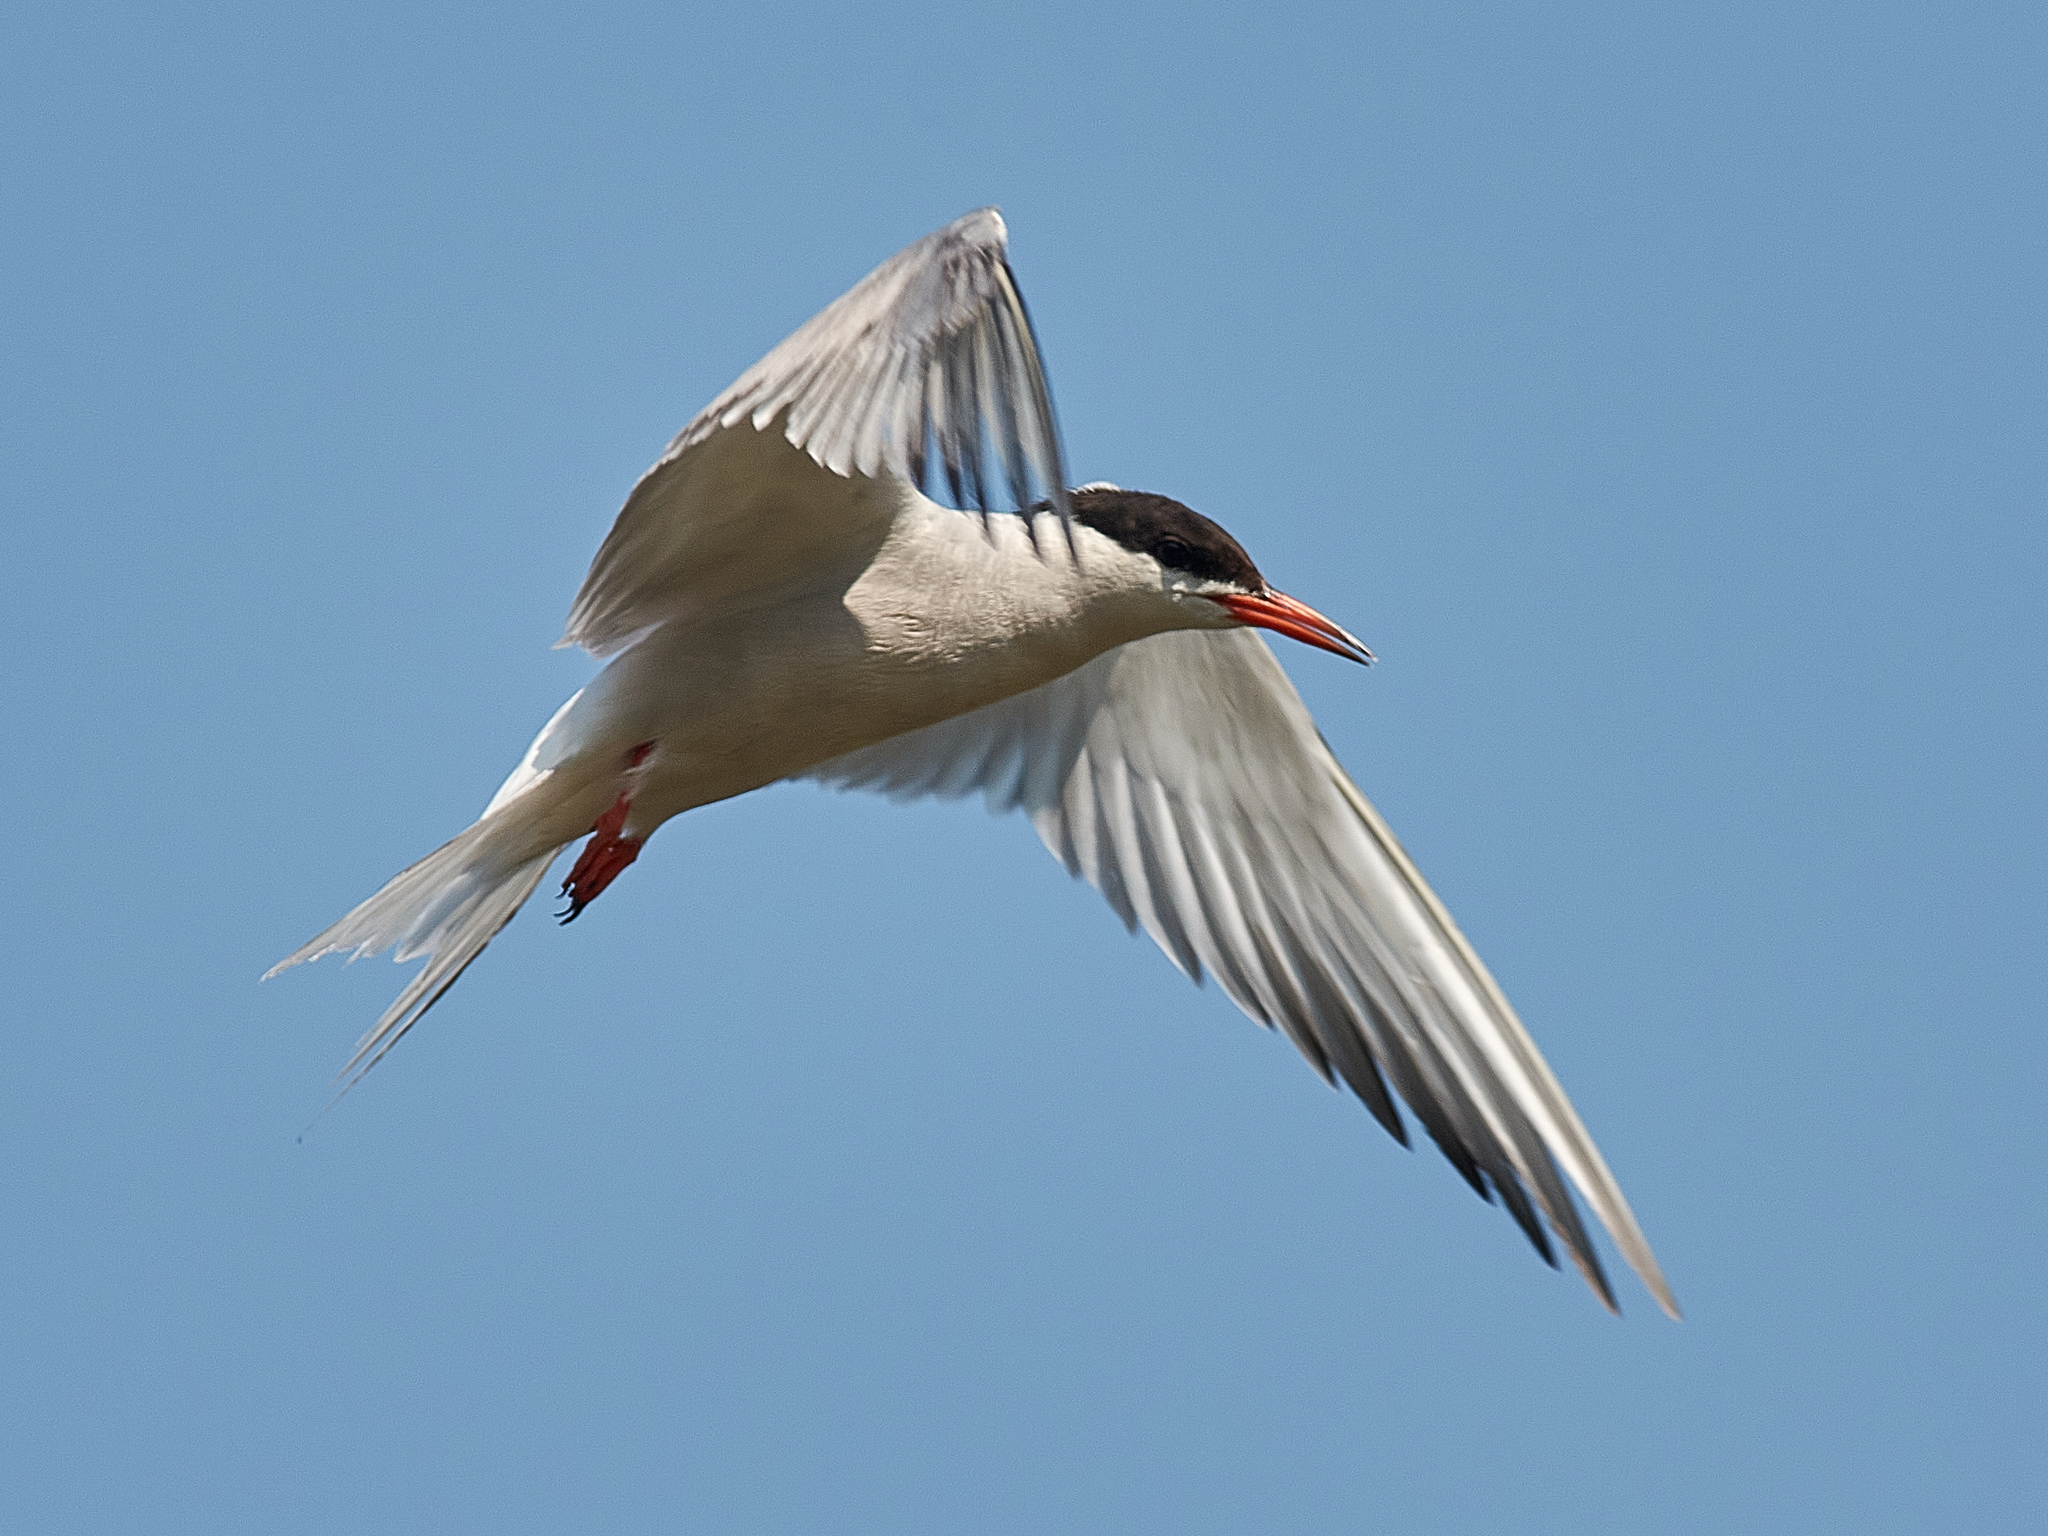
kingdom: Animalia
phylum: Chordata
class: Aves
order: Charadriiformes
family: Laridae
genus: Sterna
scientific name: Sterna hirundo
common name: Common tern
